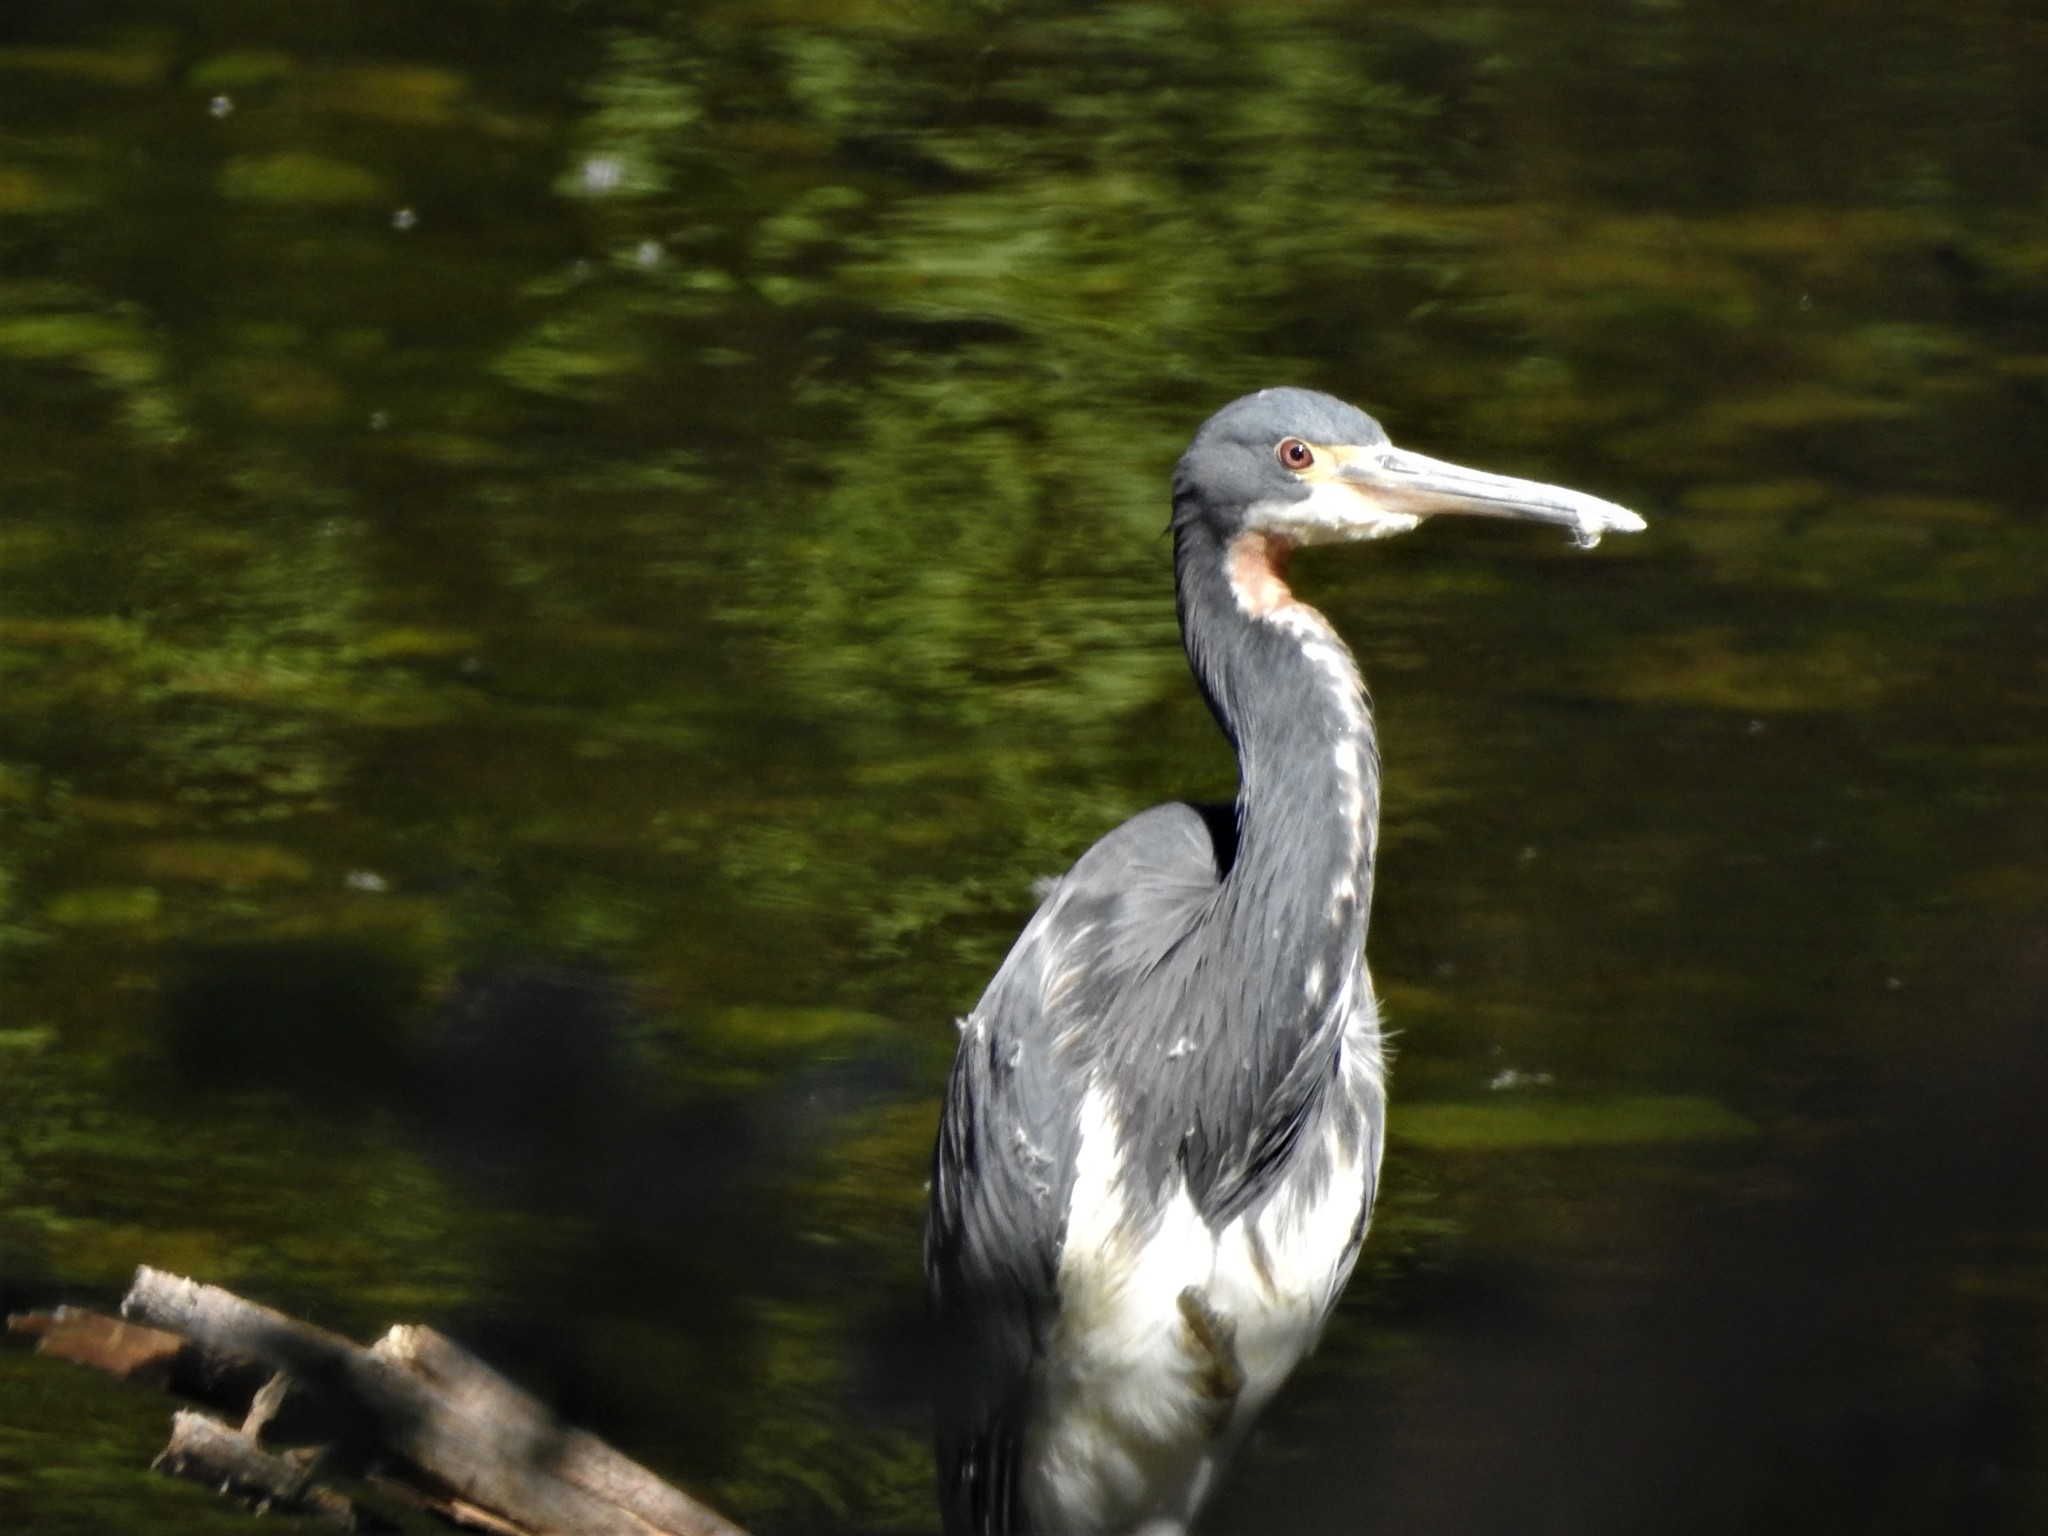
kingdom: Animalia
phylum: Chordata
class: Aves
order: Pelecaniformes
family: Ardeidae
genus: Egretta
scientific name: Egretta tricolor
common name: Tricolored heron
